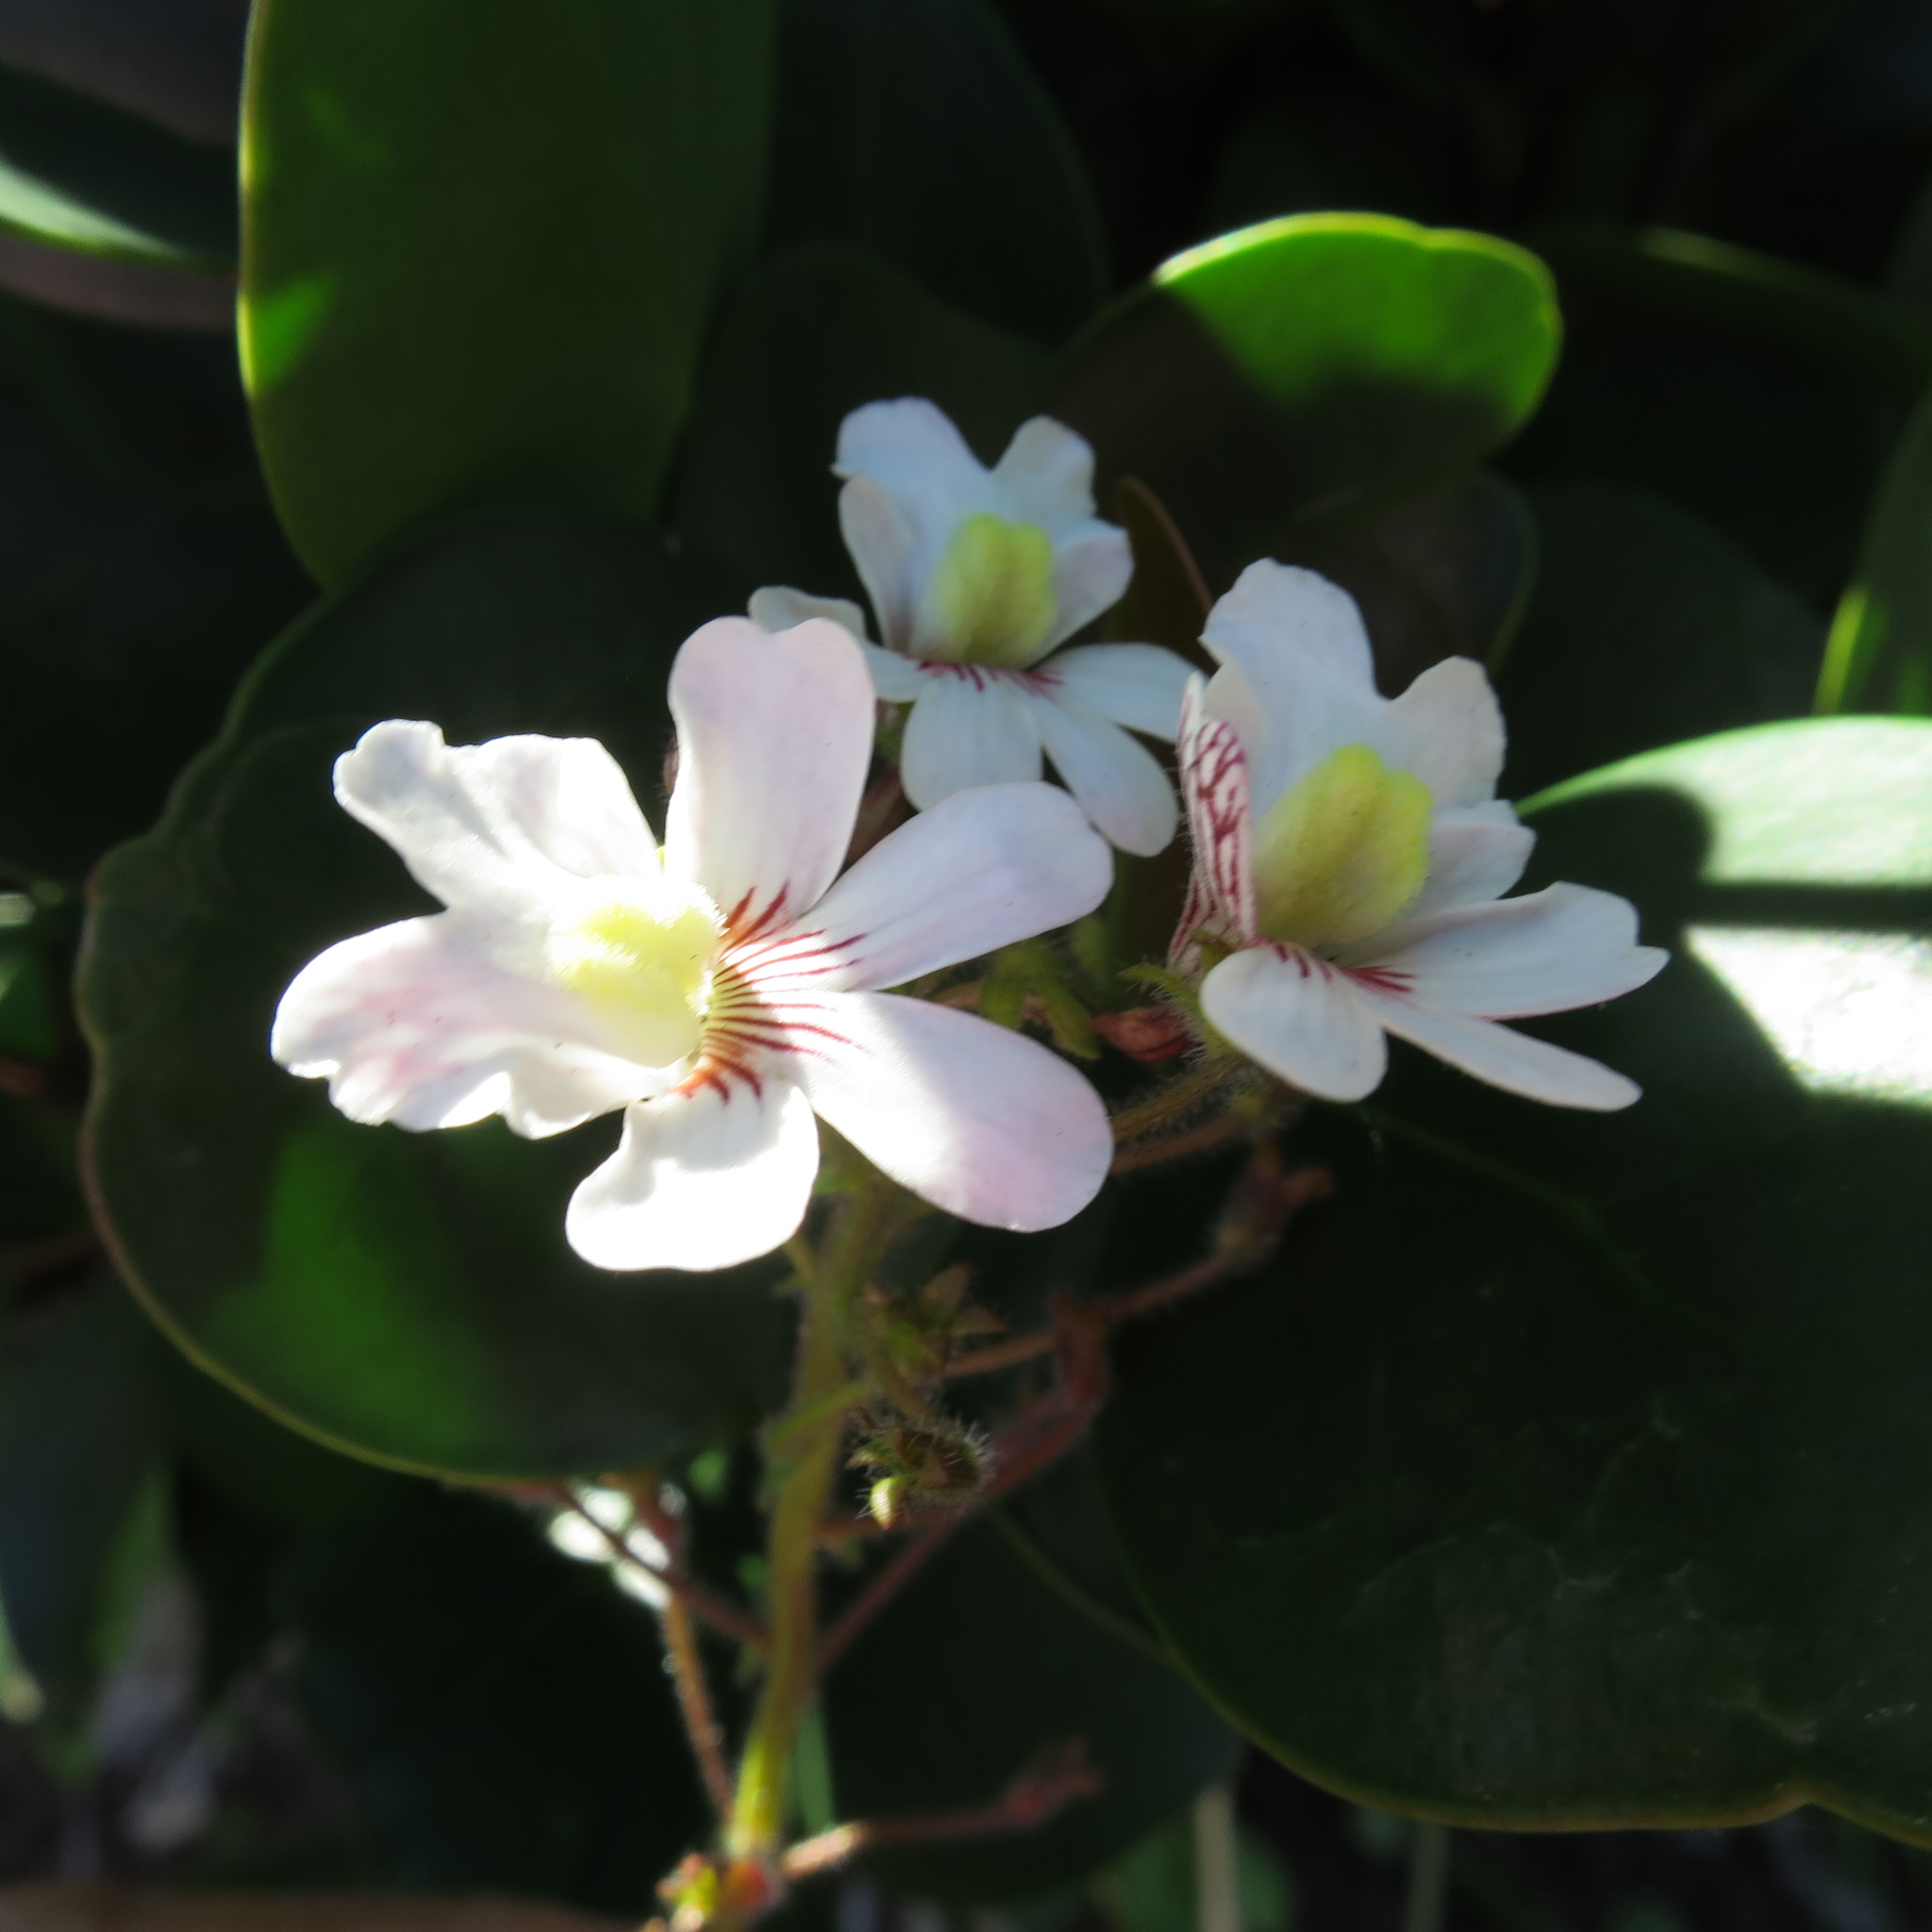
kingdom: Plantae
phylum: Tracheophyta
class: Magnoliopsida
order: Lamiales
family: Scrophulariaceae
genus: Nemesia
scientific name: Nemesia bicornis
